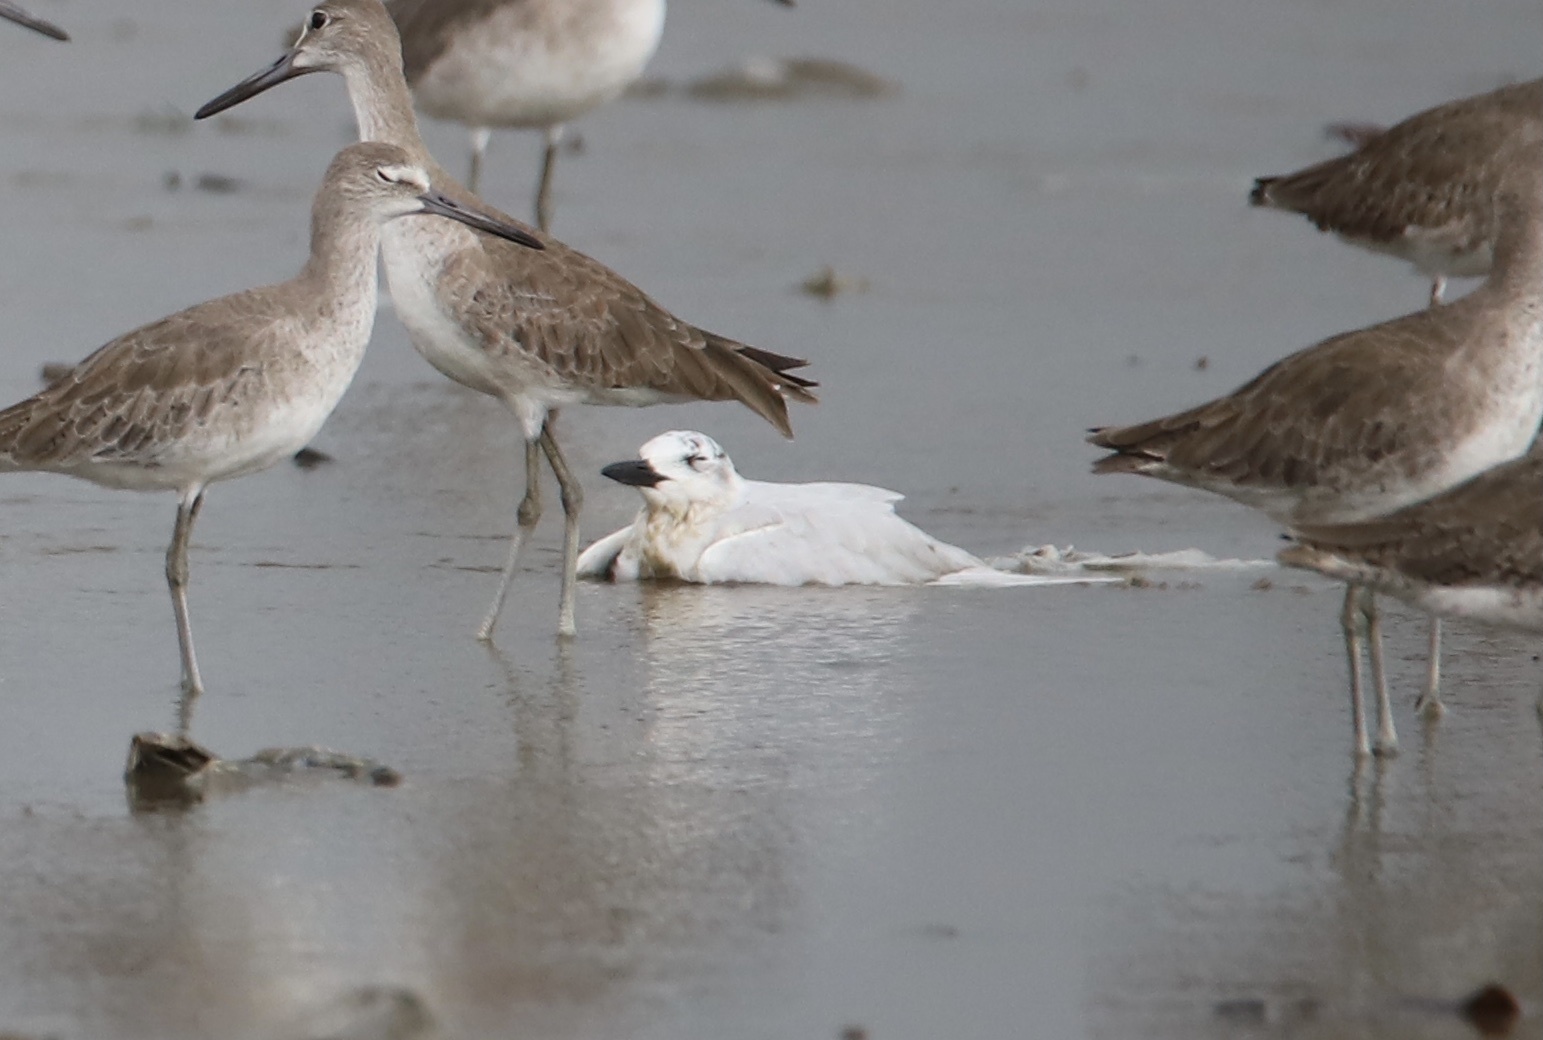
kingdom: Animalia
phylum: Chordata
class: Aves
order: Charadriiformes
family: Laridae
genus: Gelochelidon
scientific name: Gelochelidon nilotica
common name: Gull-billed tern
